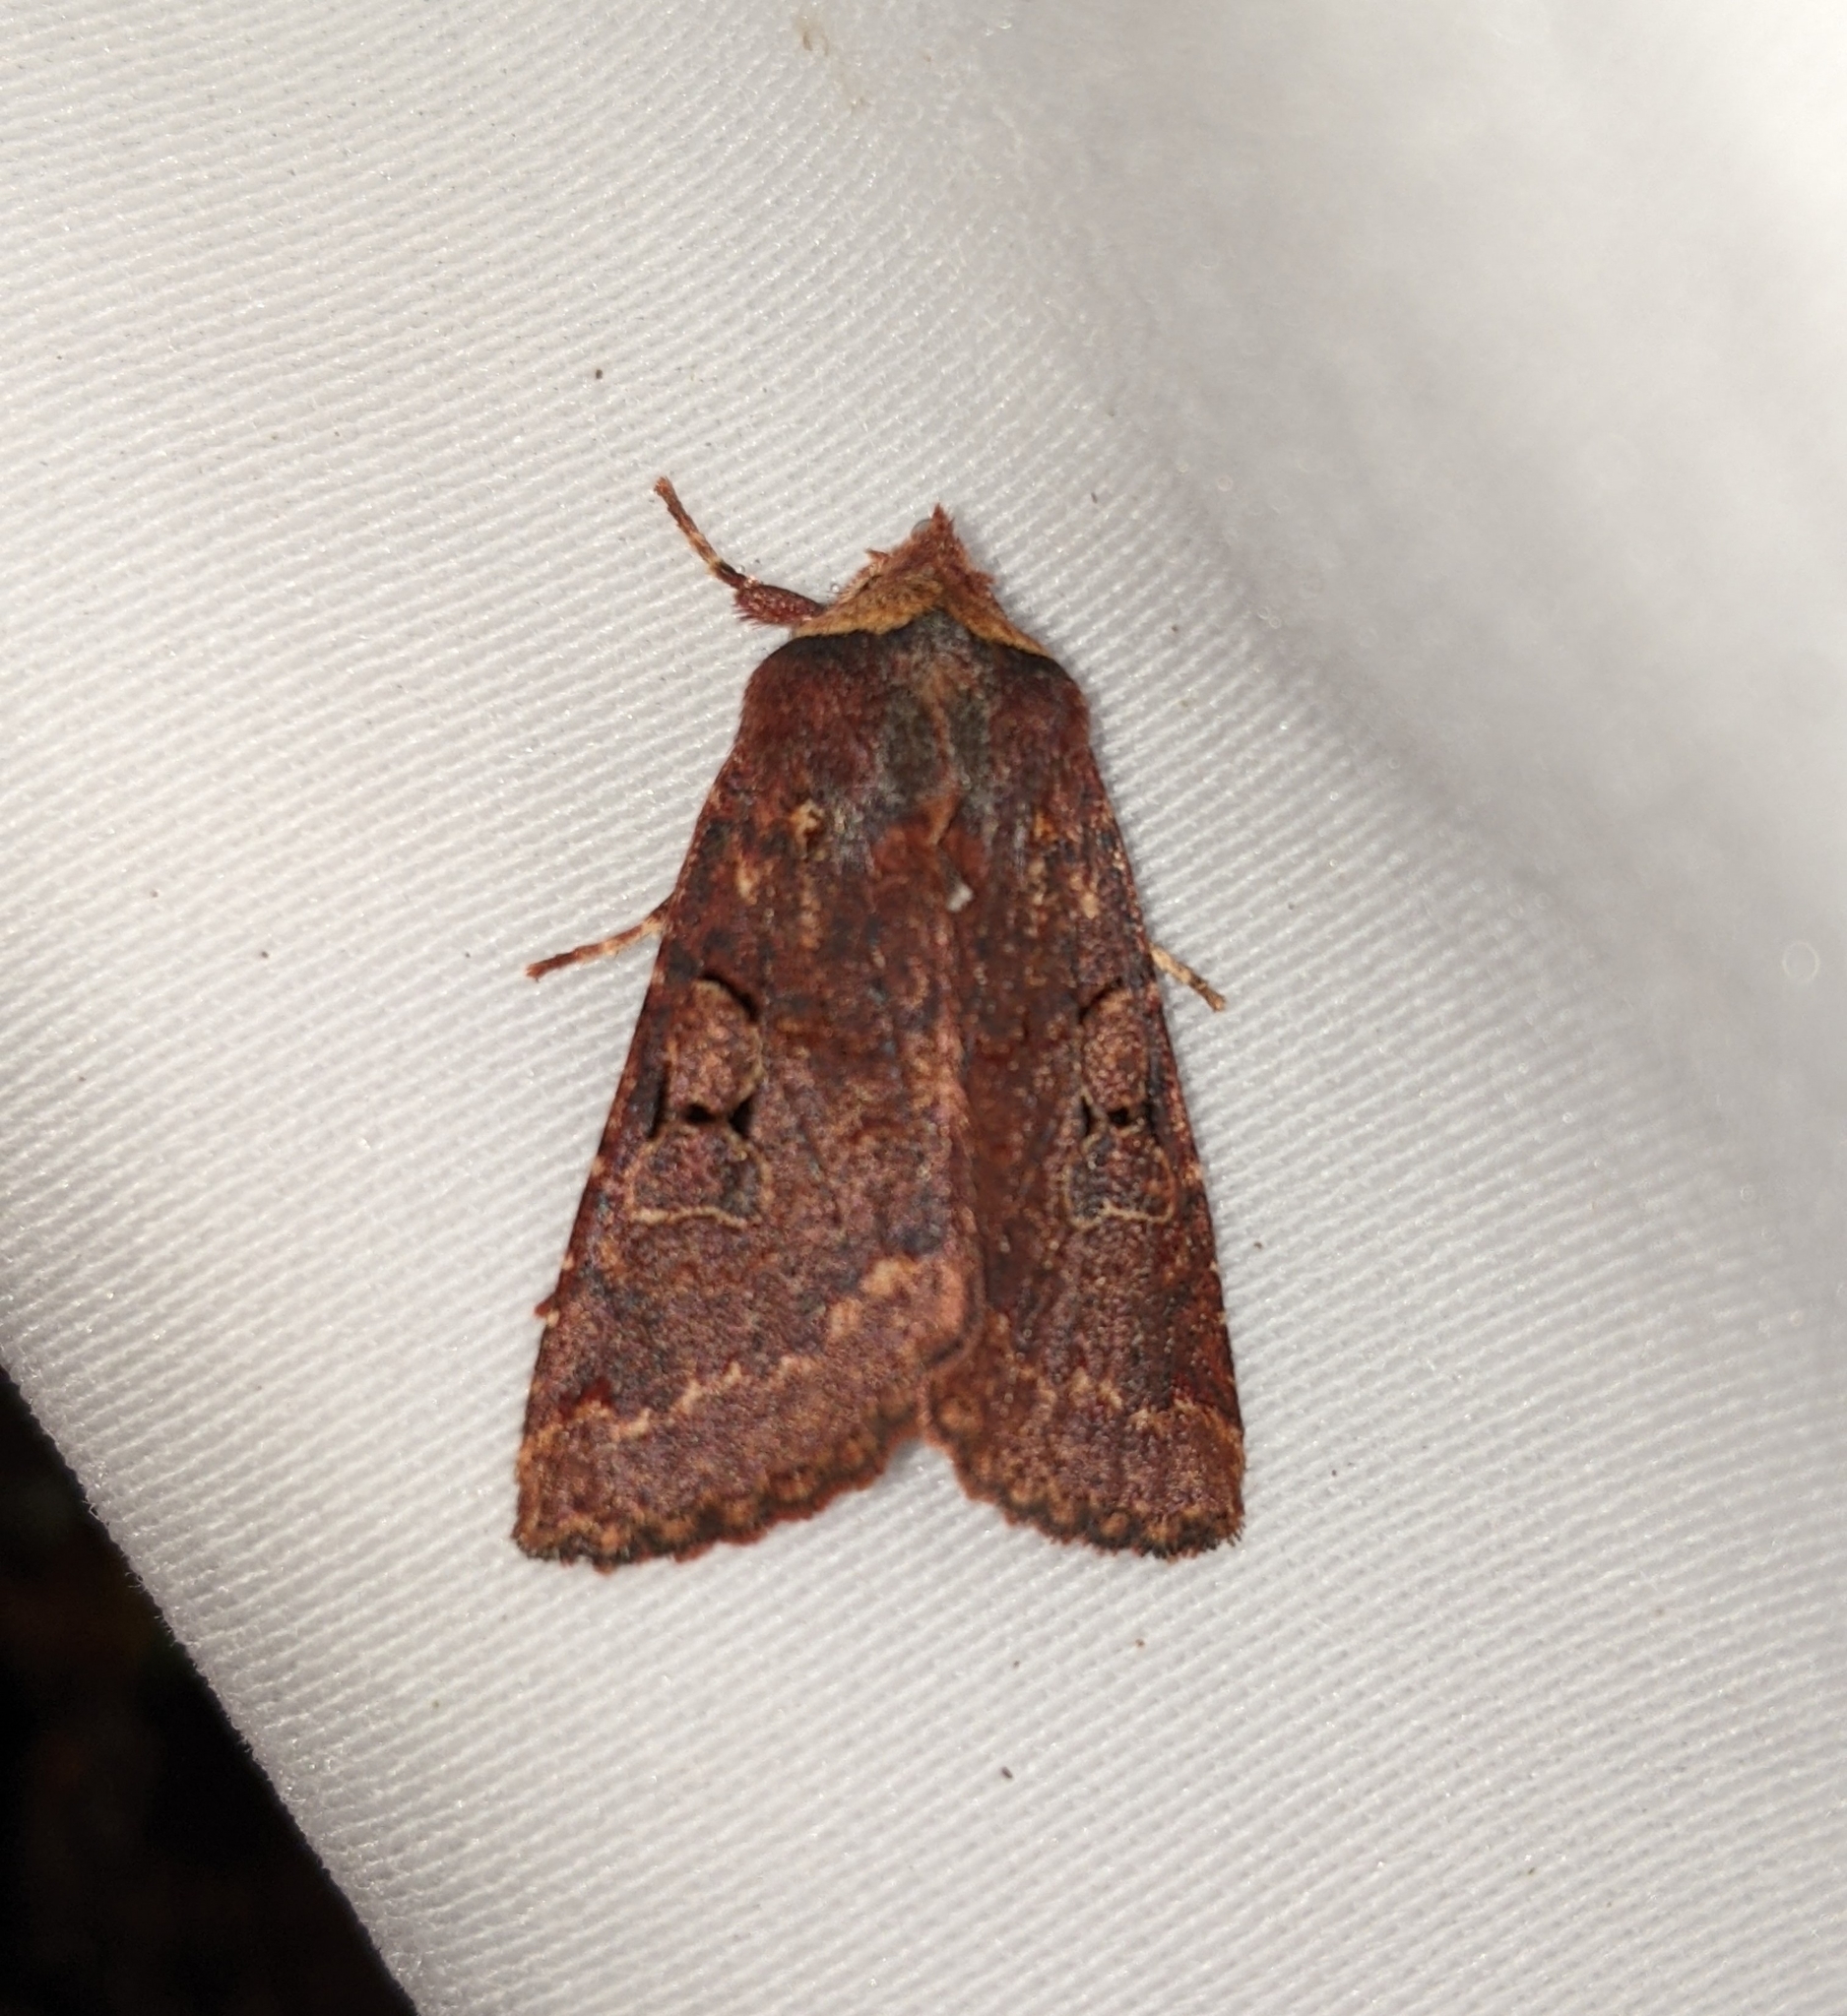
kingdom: Animalia
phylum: Arthropoda
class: Insecta
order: Lepidoptera
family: Noctuidae
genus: Orthosia
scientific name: Orthosia praeses
